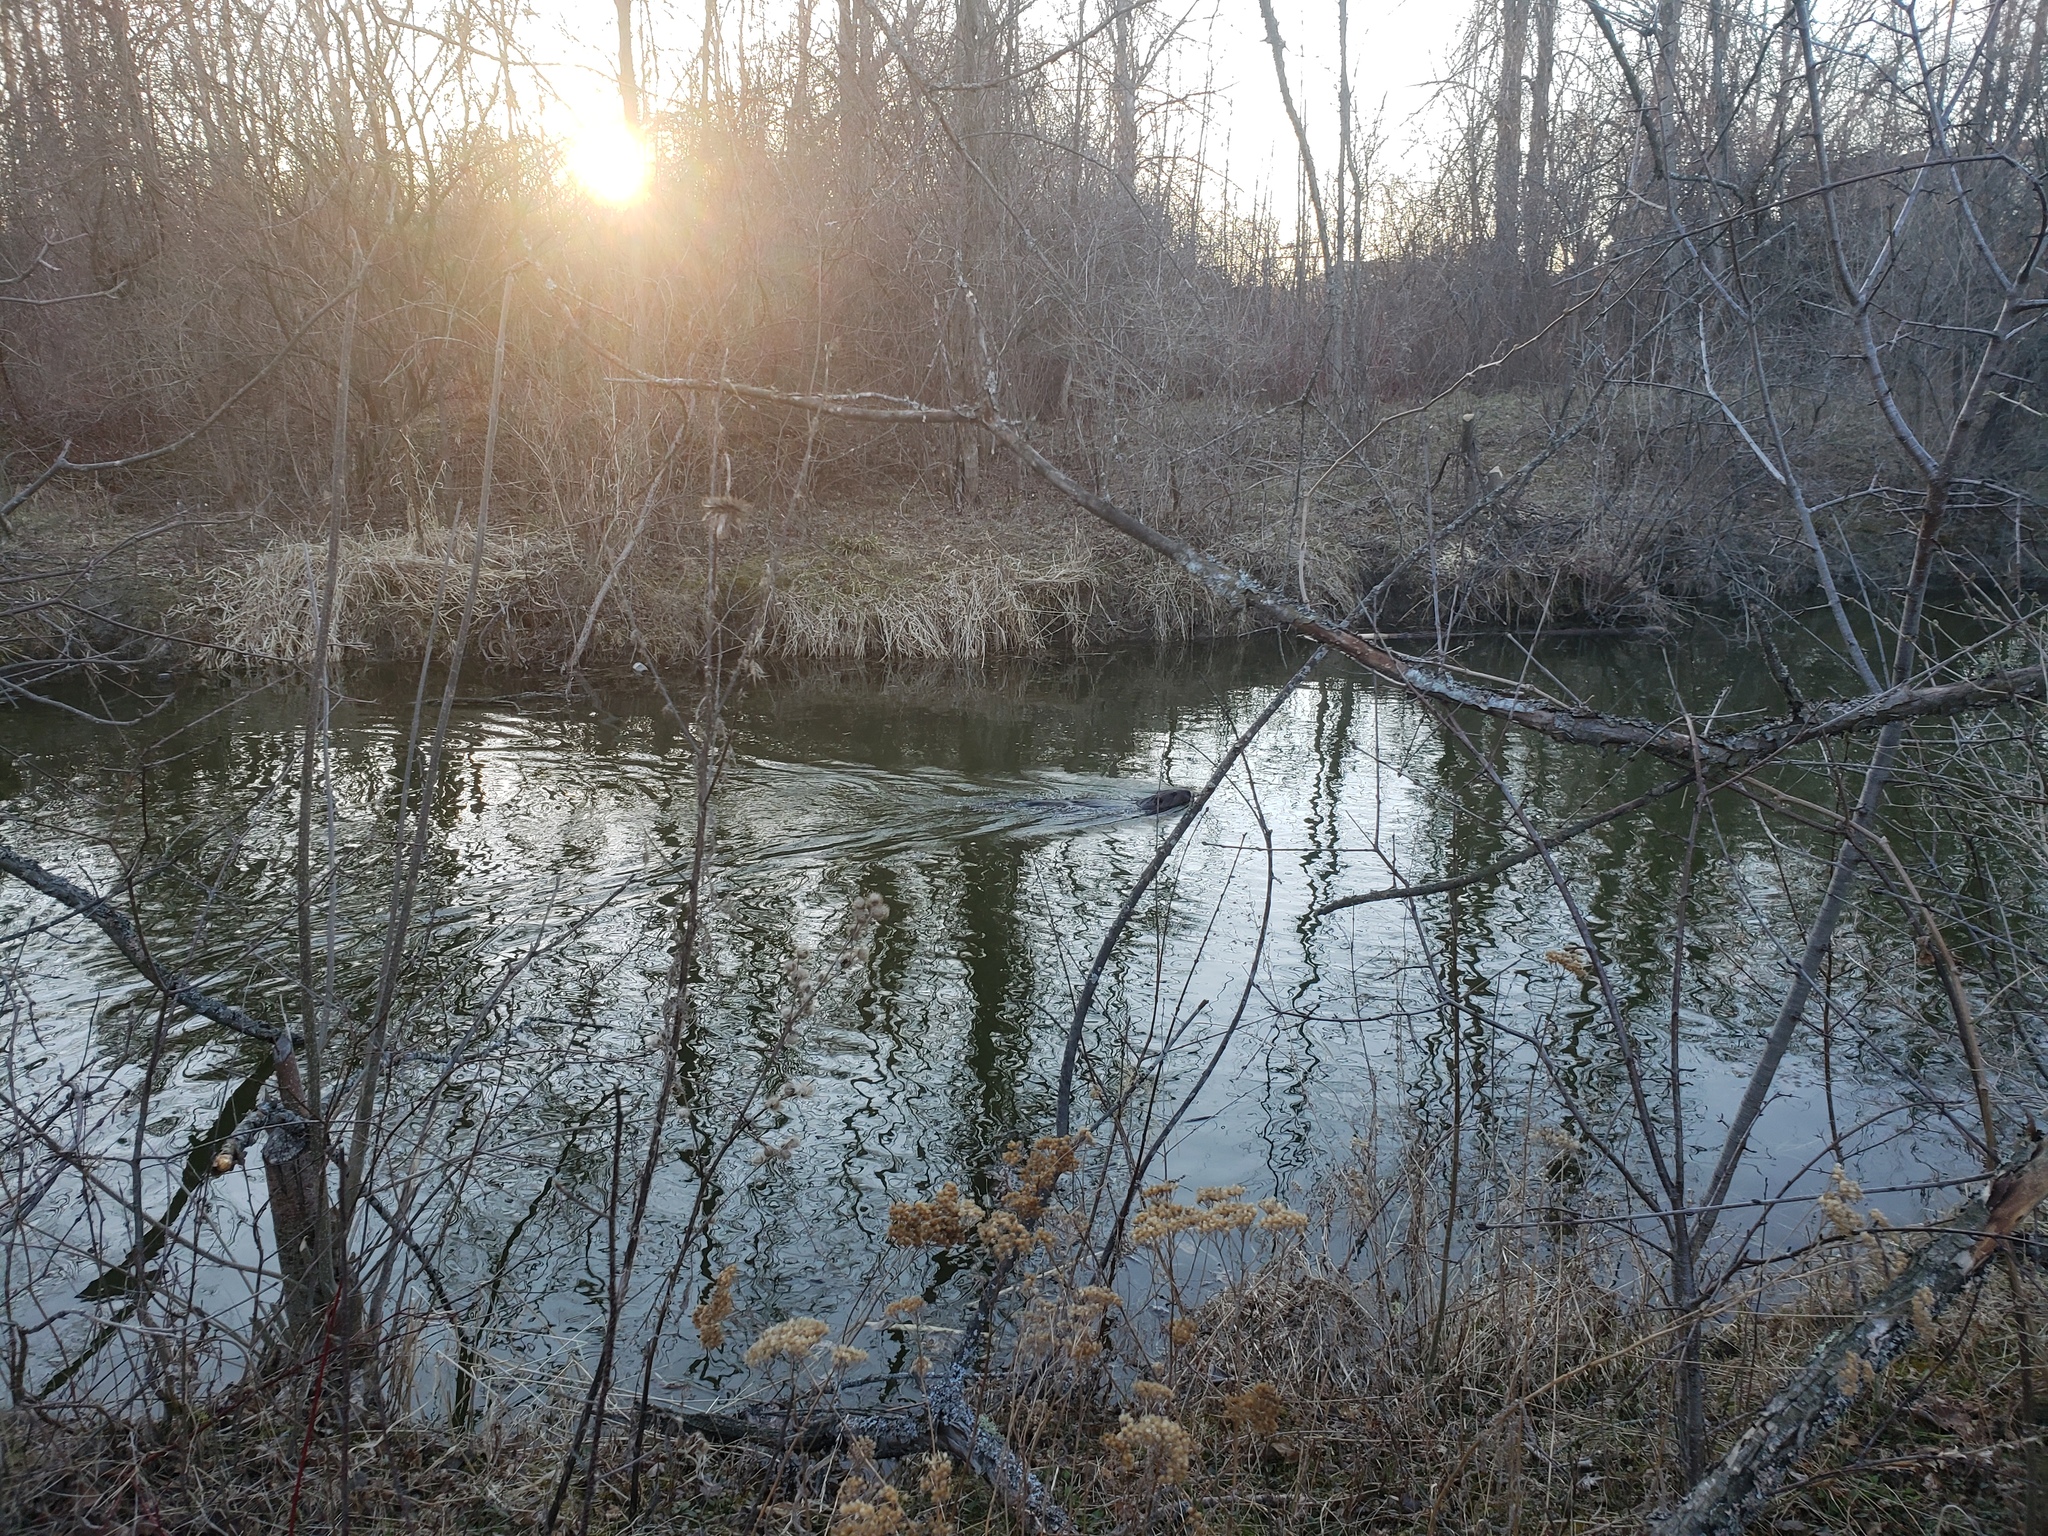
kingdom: Animalia
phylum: Chordata
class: Mammalia
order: Rodentia
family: Castoridae
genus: Castor
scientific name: Castor canadensis
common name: American beaver
